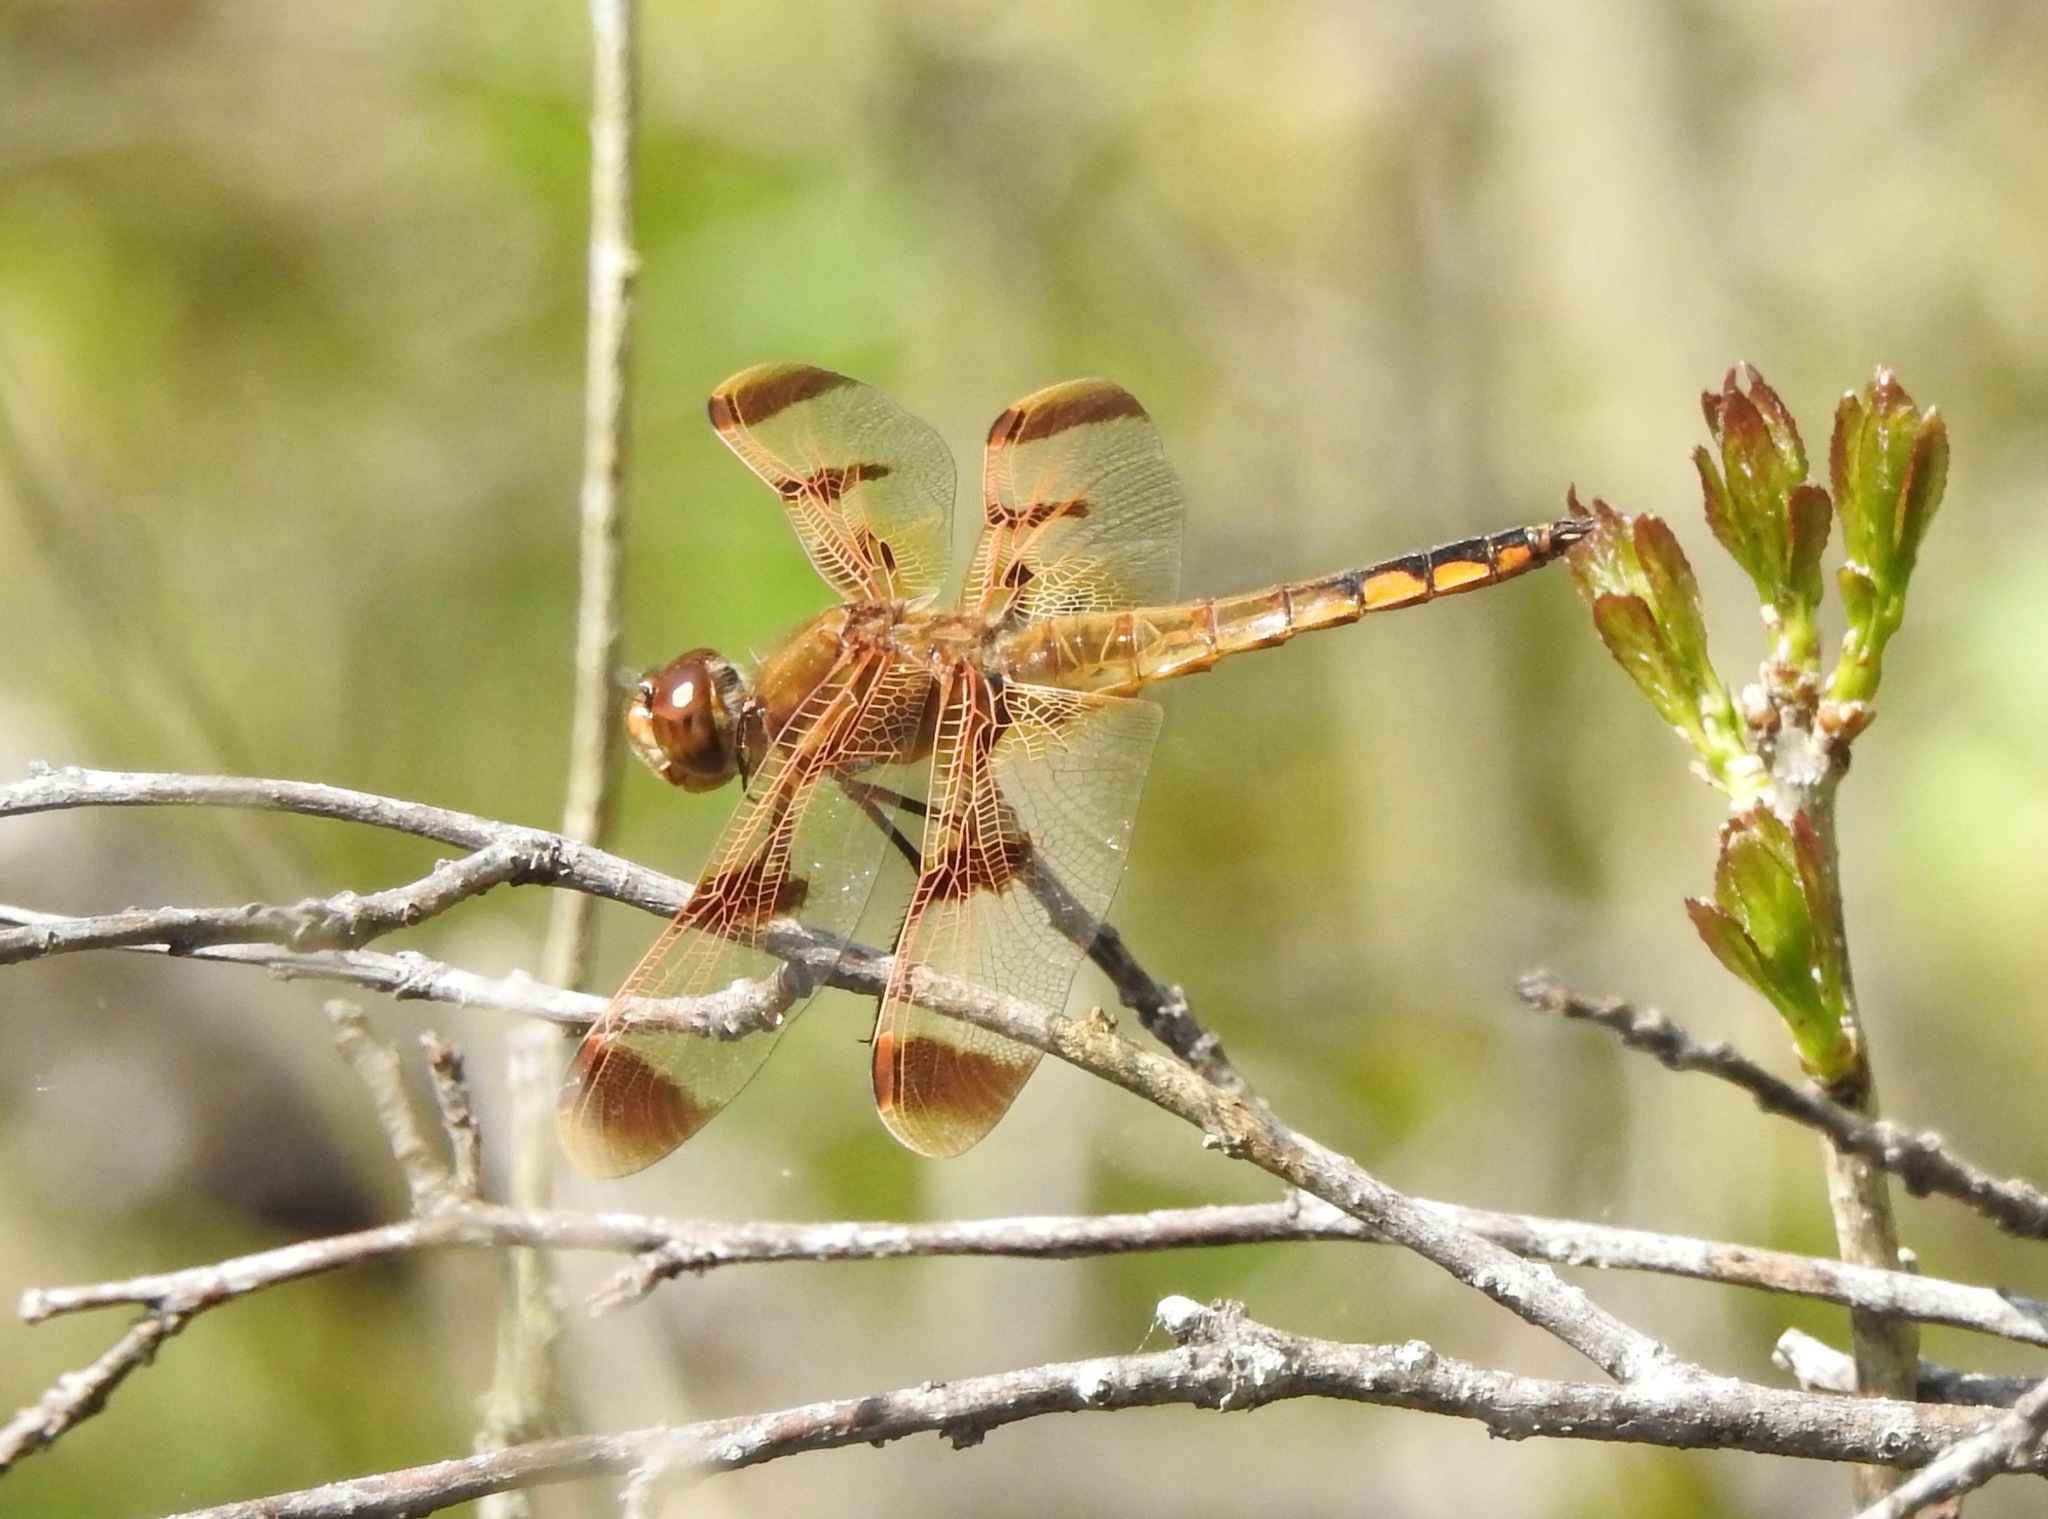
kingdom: Animalia
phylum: Arthropoda
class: Insecta
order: Odonata
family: Libellulidae
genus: Libellula
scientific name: Libellula semifasciata
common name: Painted skimmer
